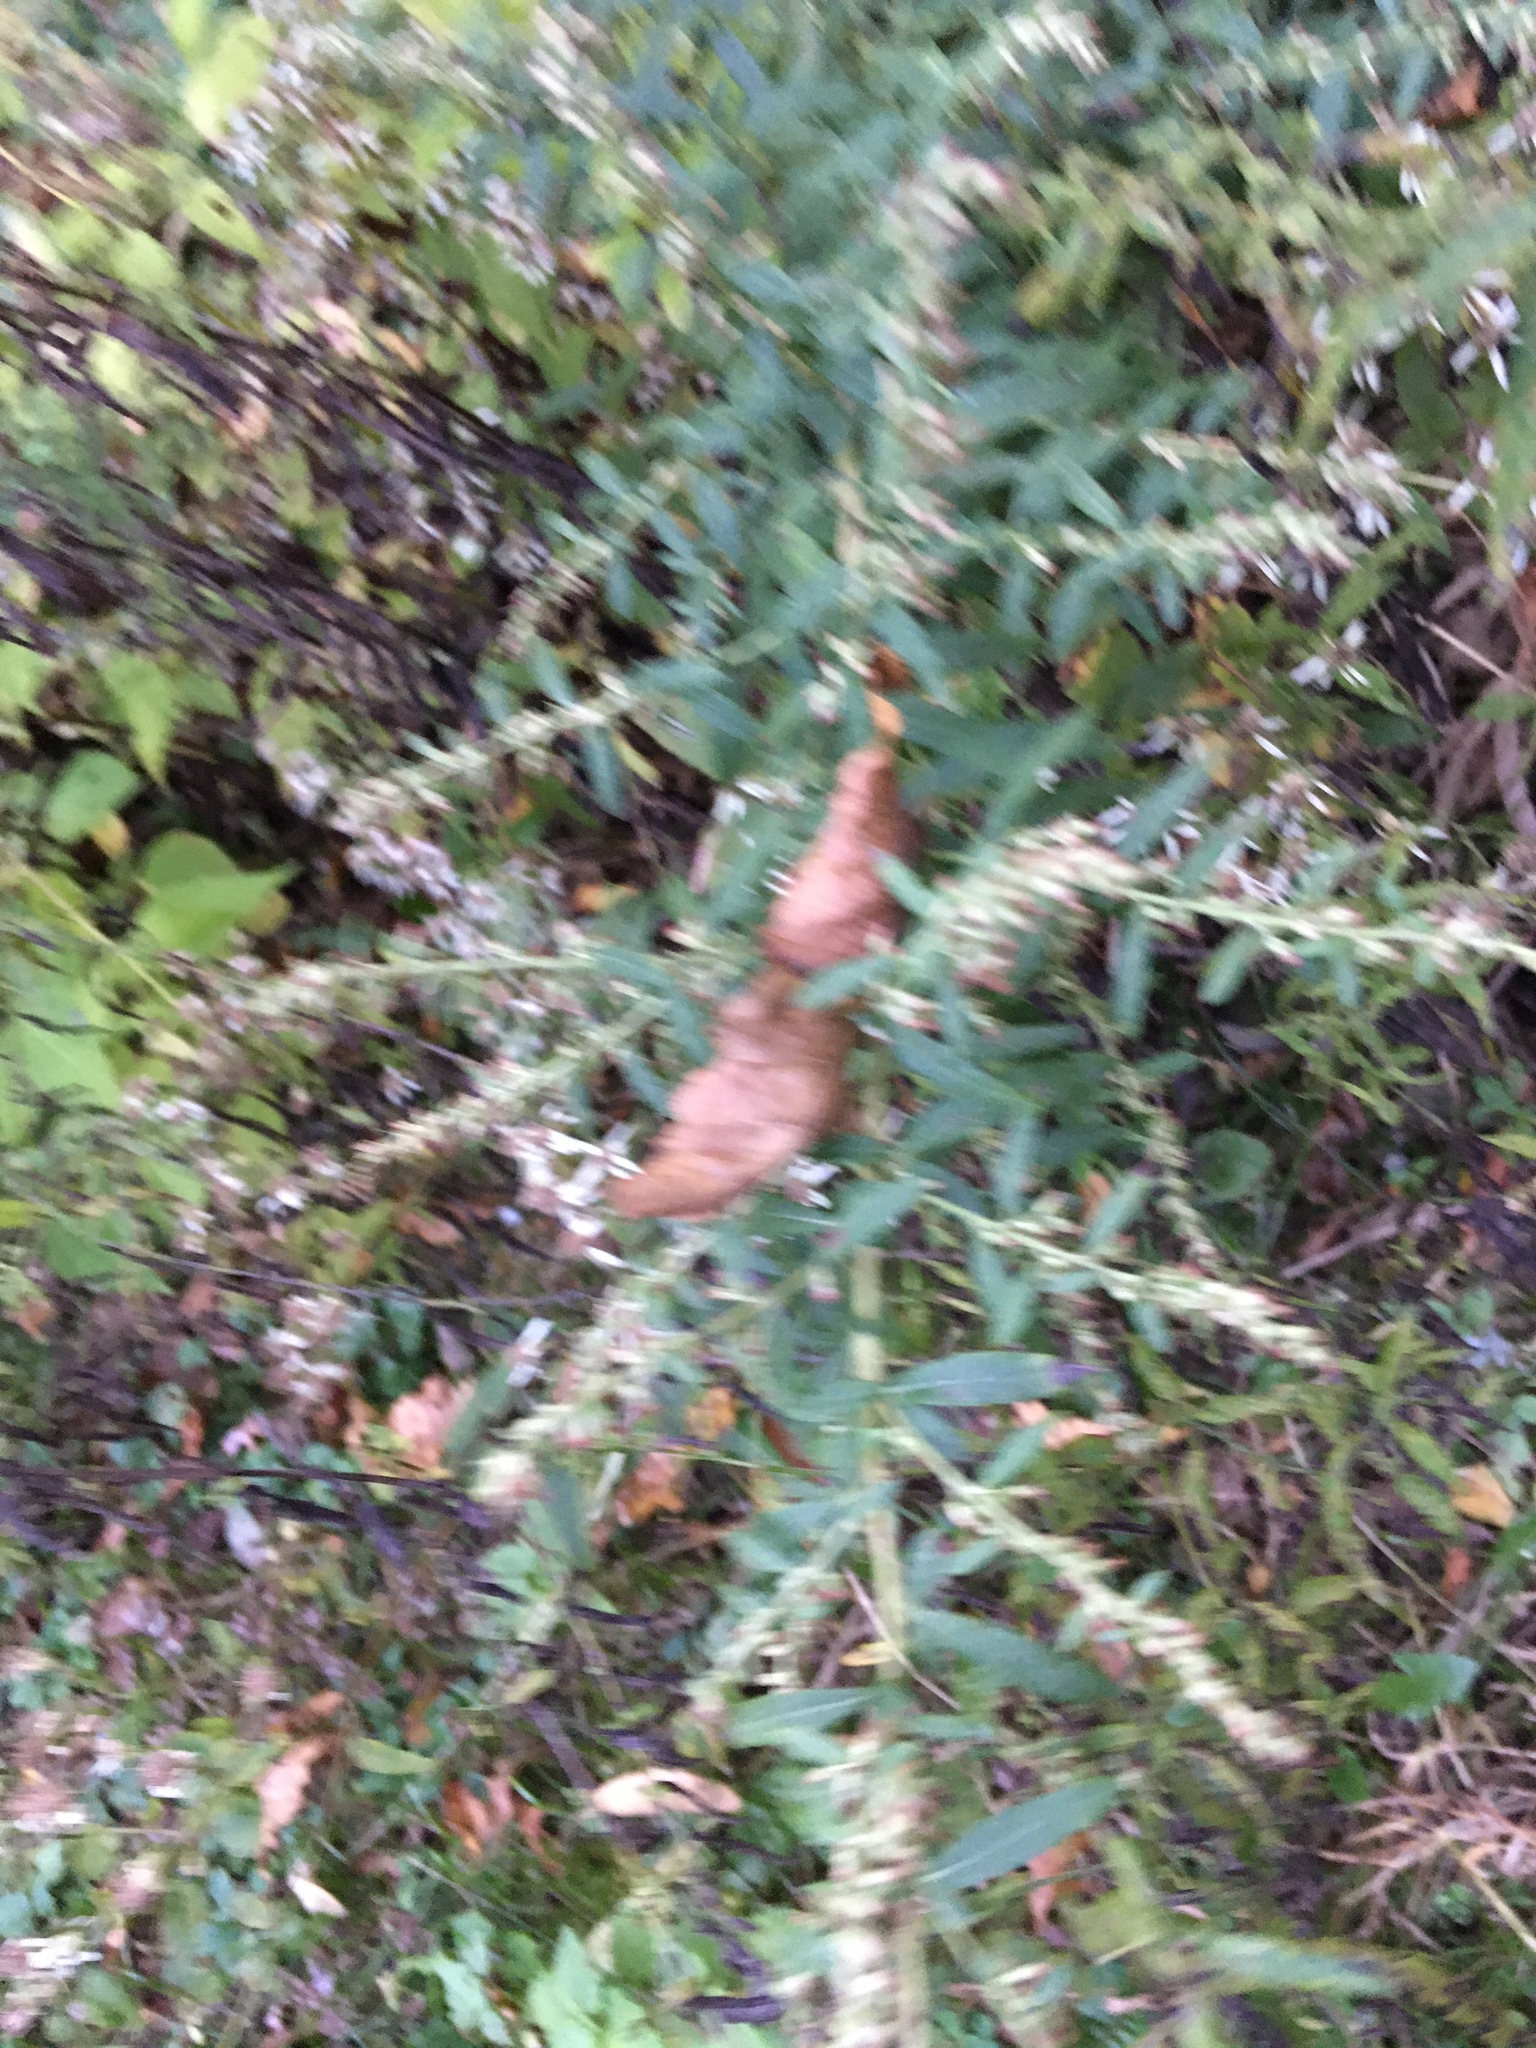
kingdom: Plantae
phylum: Tracheophyta
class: Magnoliopsida
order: Asterales
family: Asteraceae
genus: Artemisia
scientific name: Artemisia vulgaris
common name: Mugwort
